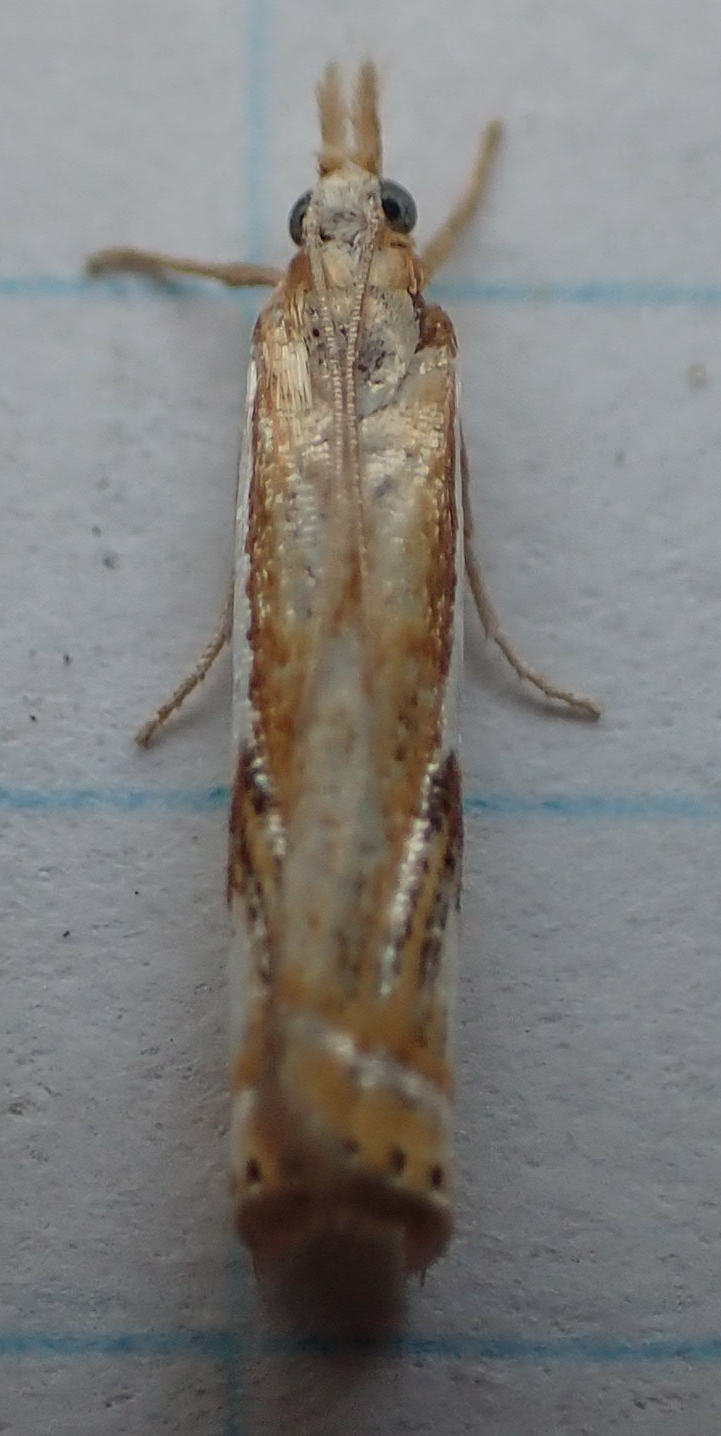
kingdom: Animalia
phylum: Arthropoda
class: Insecta
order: Lepidoptera
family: Crambidae
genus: Crambus
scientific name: Crambus agitatellus
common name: Double-banded grass-veneer
